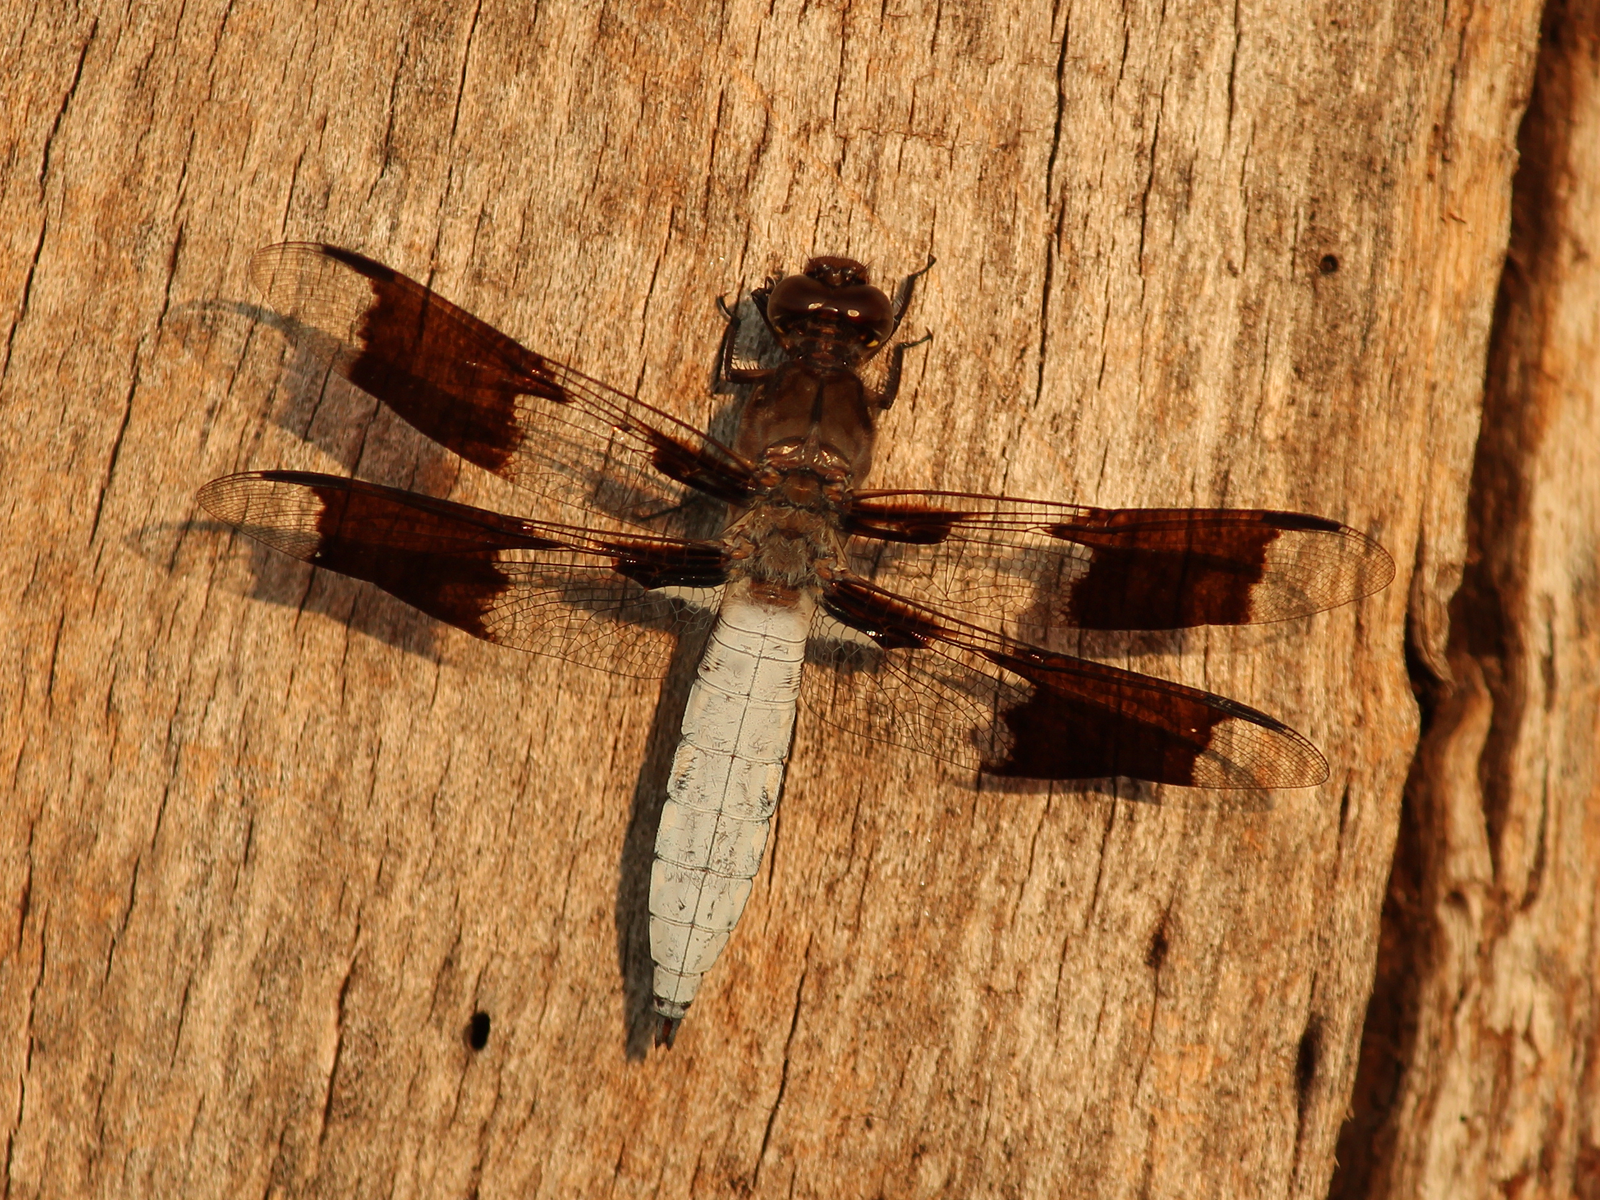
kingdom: Animalia
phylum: Arthropoda
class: Insecta
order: Odonata
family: Libellulidae
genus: Plathemis
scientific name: Plathemis lydia
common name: Common whitetail
